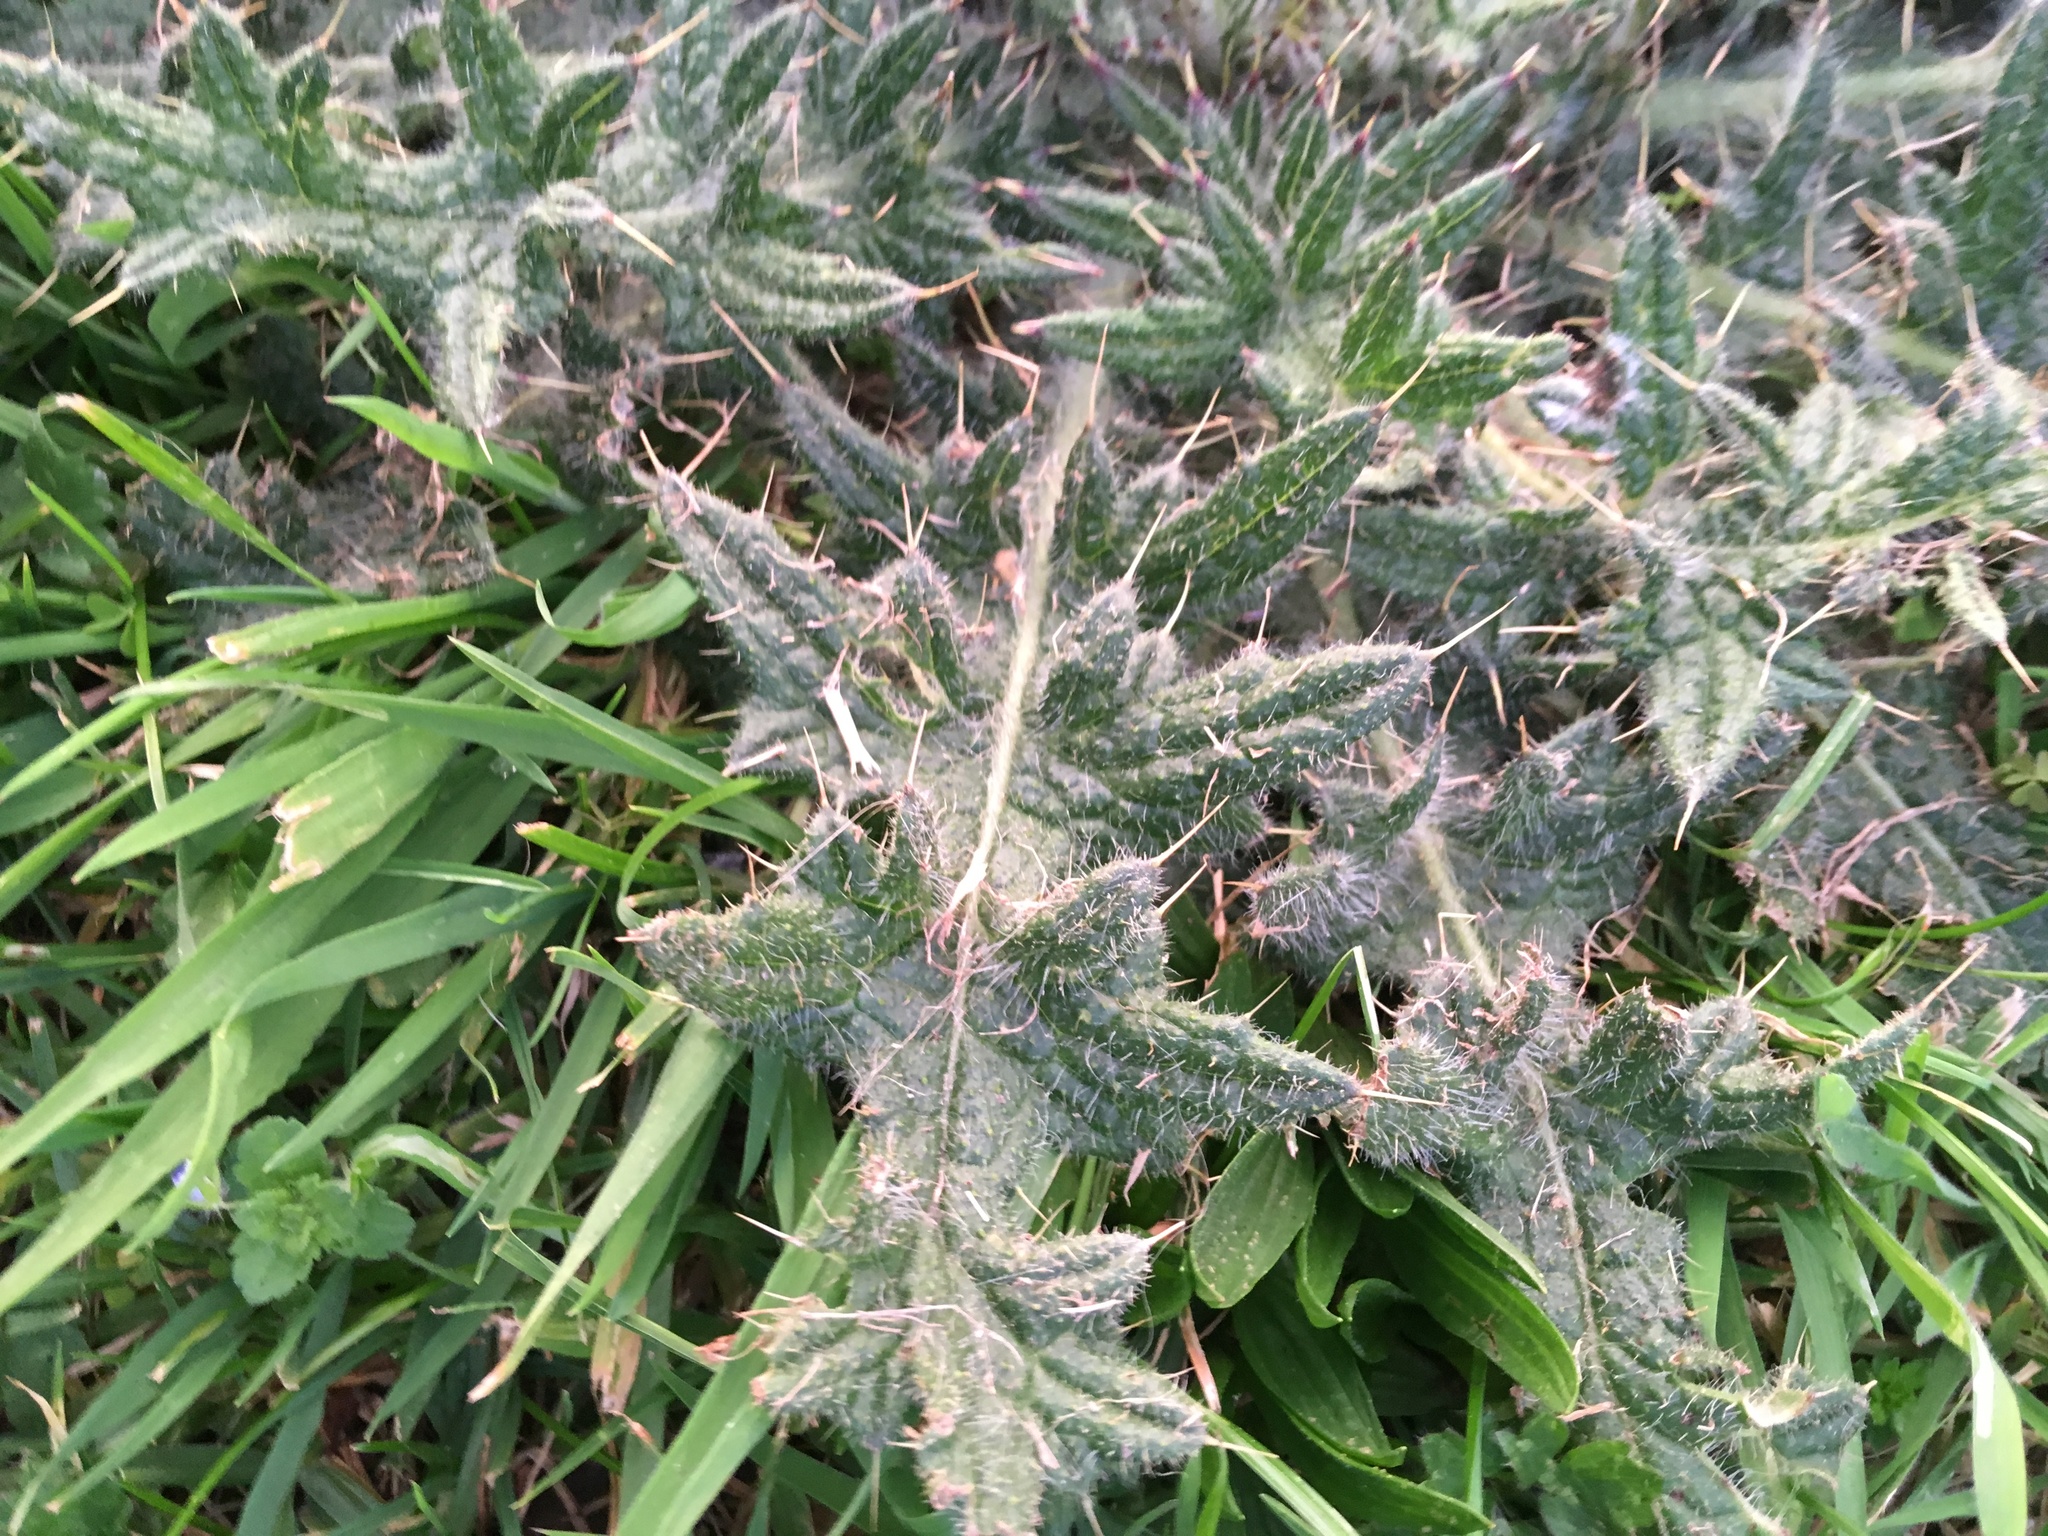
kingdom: Plantae
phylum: Tracheophyta
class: Magnoliopsida
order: Asterales
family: Asteraceae
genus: Cirsium
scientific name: Cirsium vulgare
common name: Bull thistle
